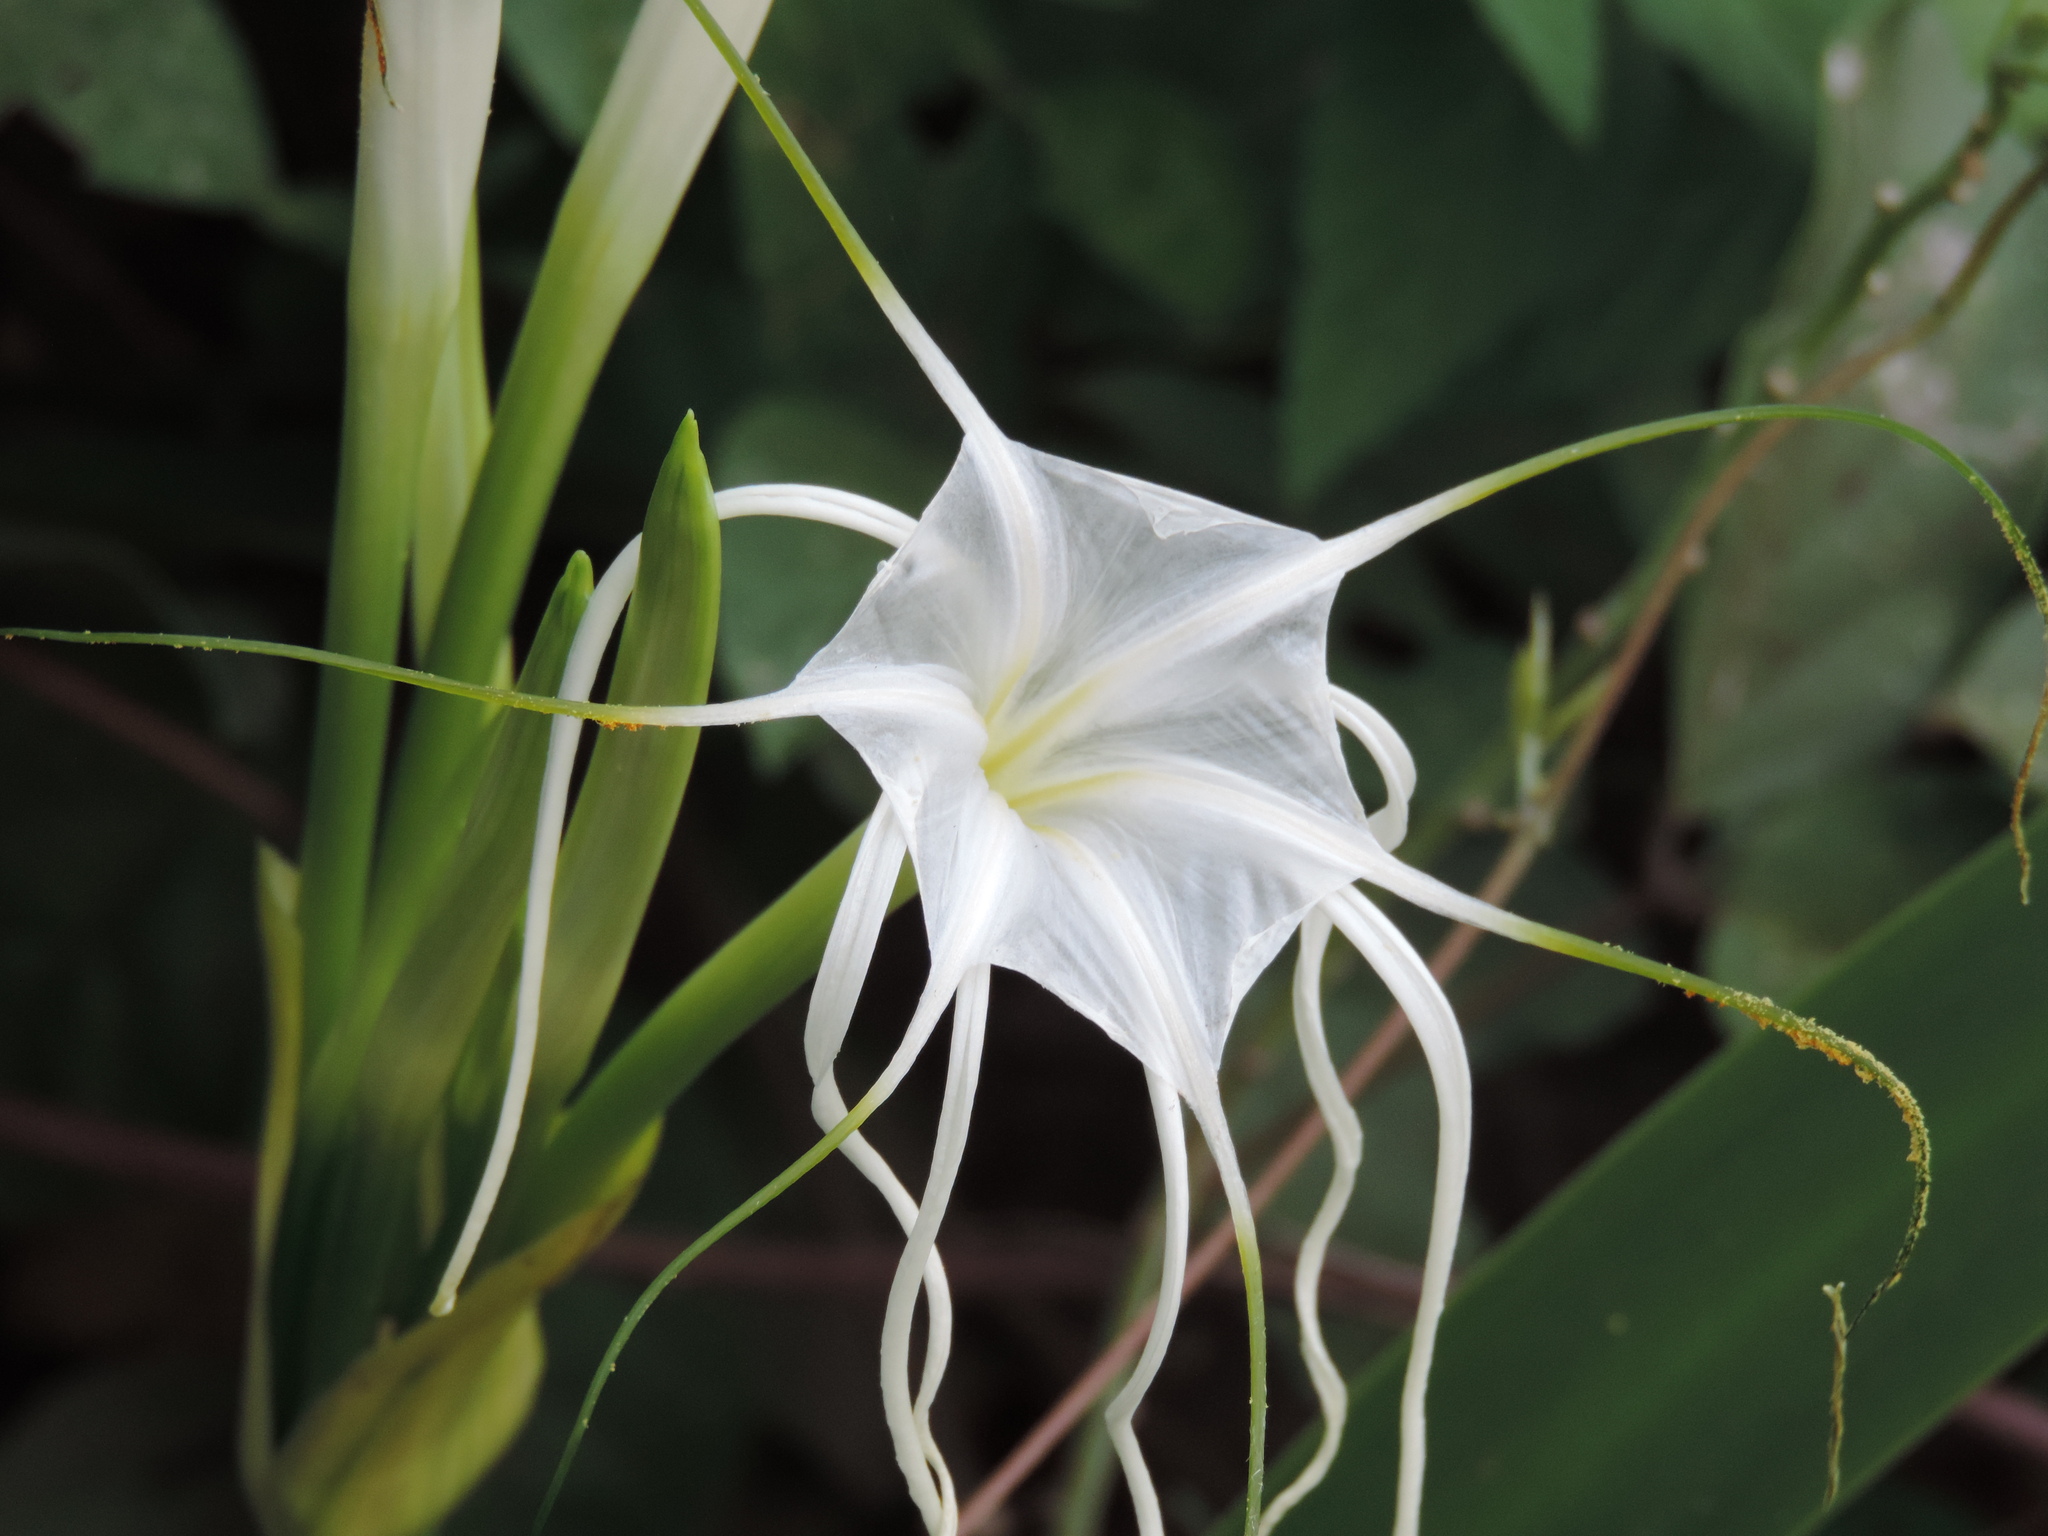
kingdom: Plantae
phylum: Tracheophyta
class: Liliopsida
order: Asparagales
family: Amaryllidaceae
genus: Hymenocallis
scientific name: Hymenocallis
